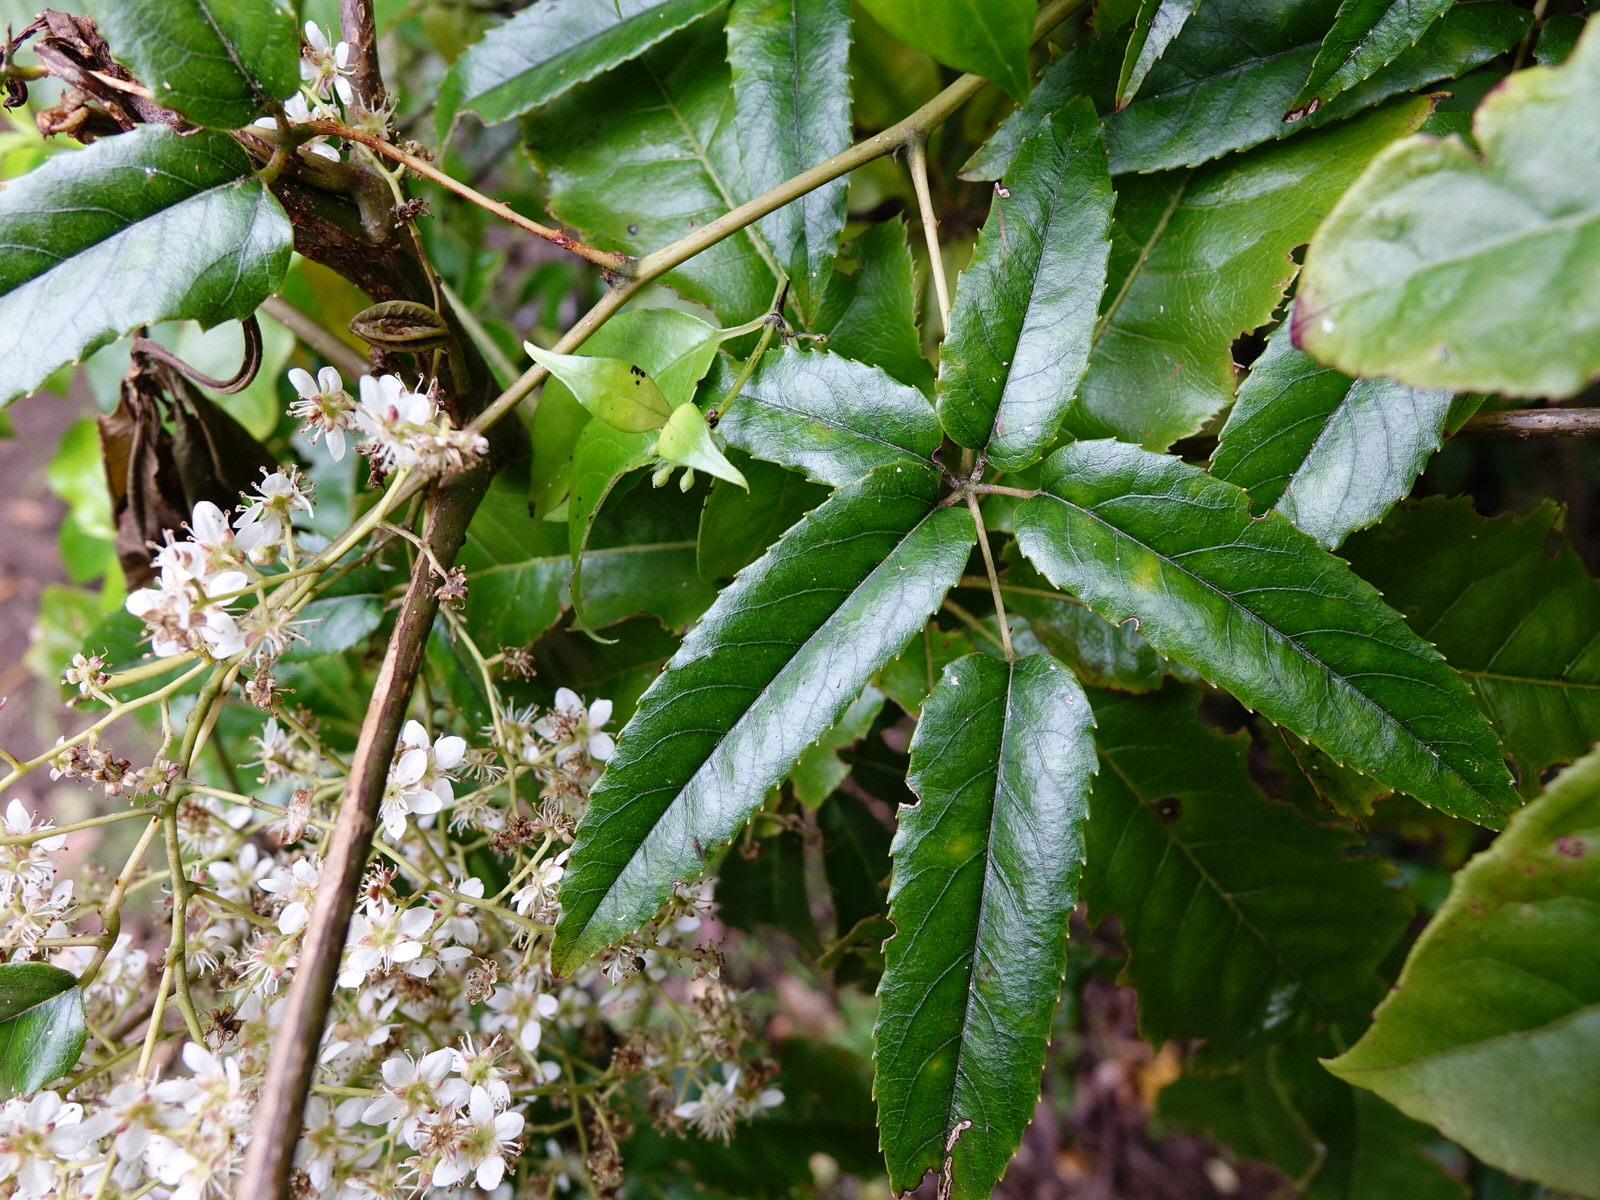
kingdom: Plantae
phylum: Tracheophyta
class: Magnoliopsida
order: Rosales
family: Rosaceae
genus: Rubus
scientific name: Rubus cissoides
